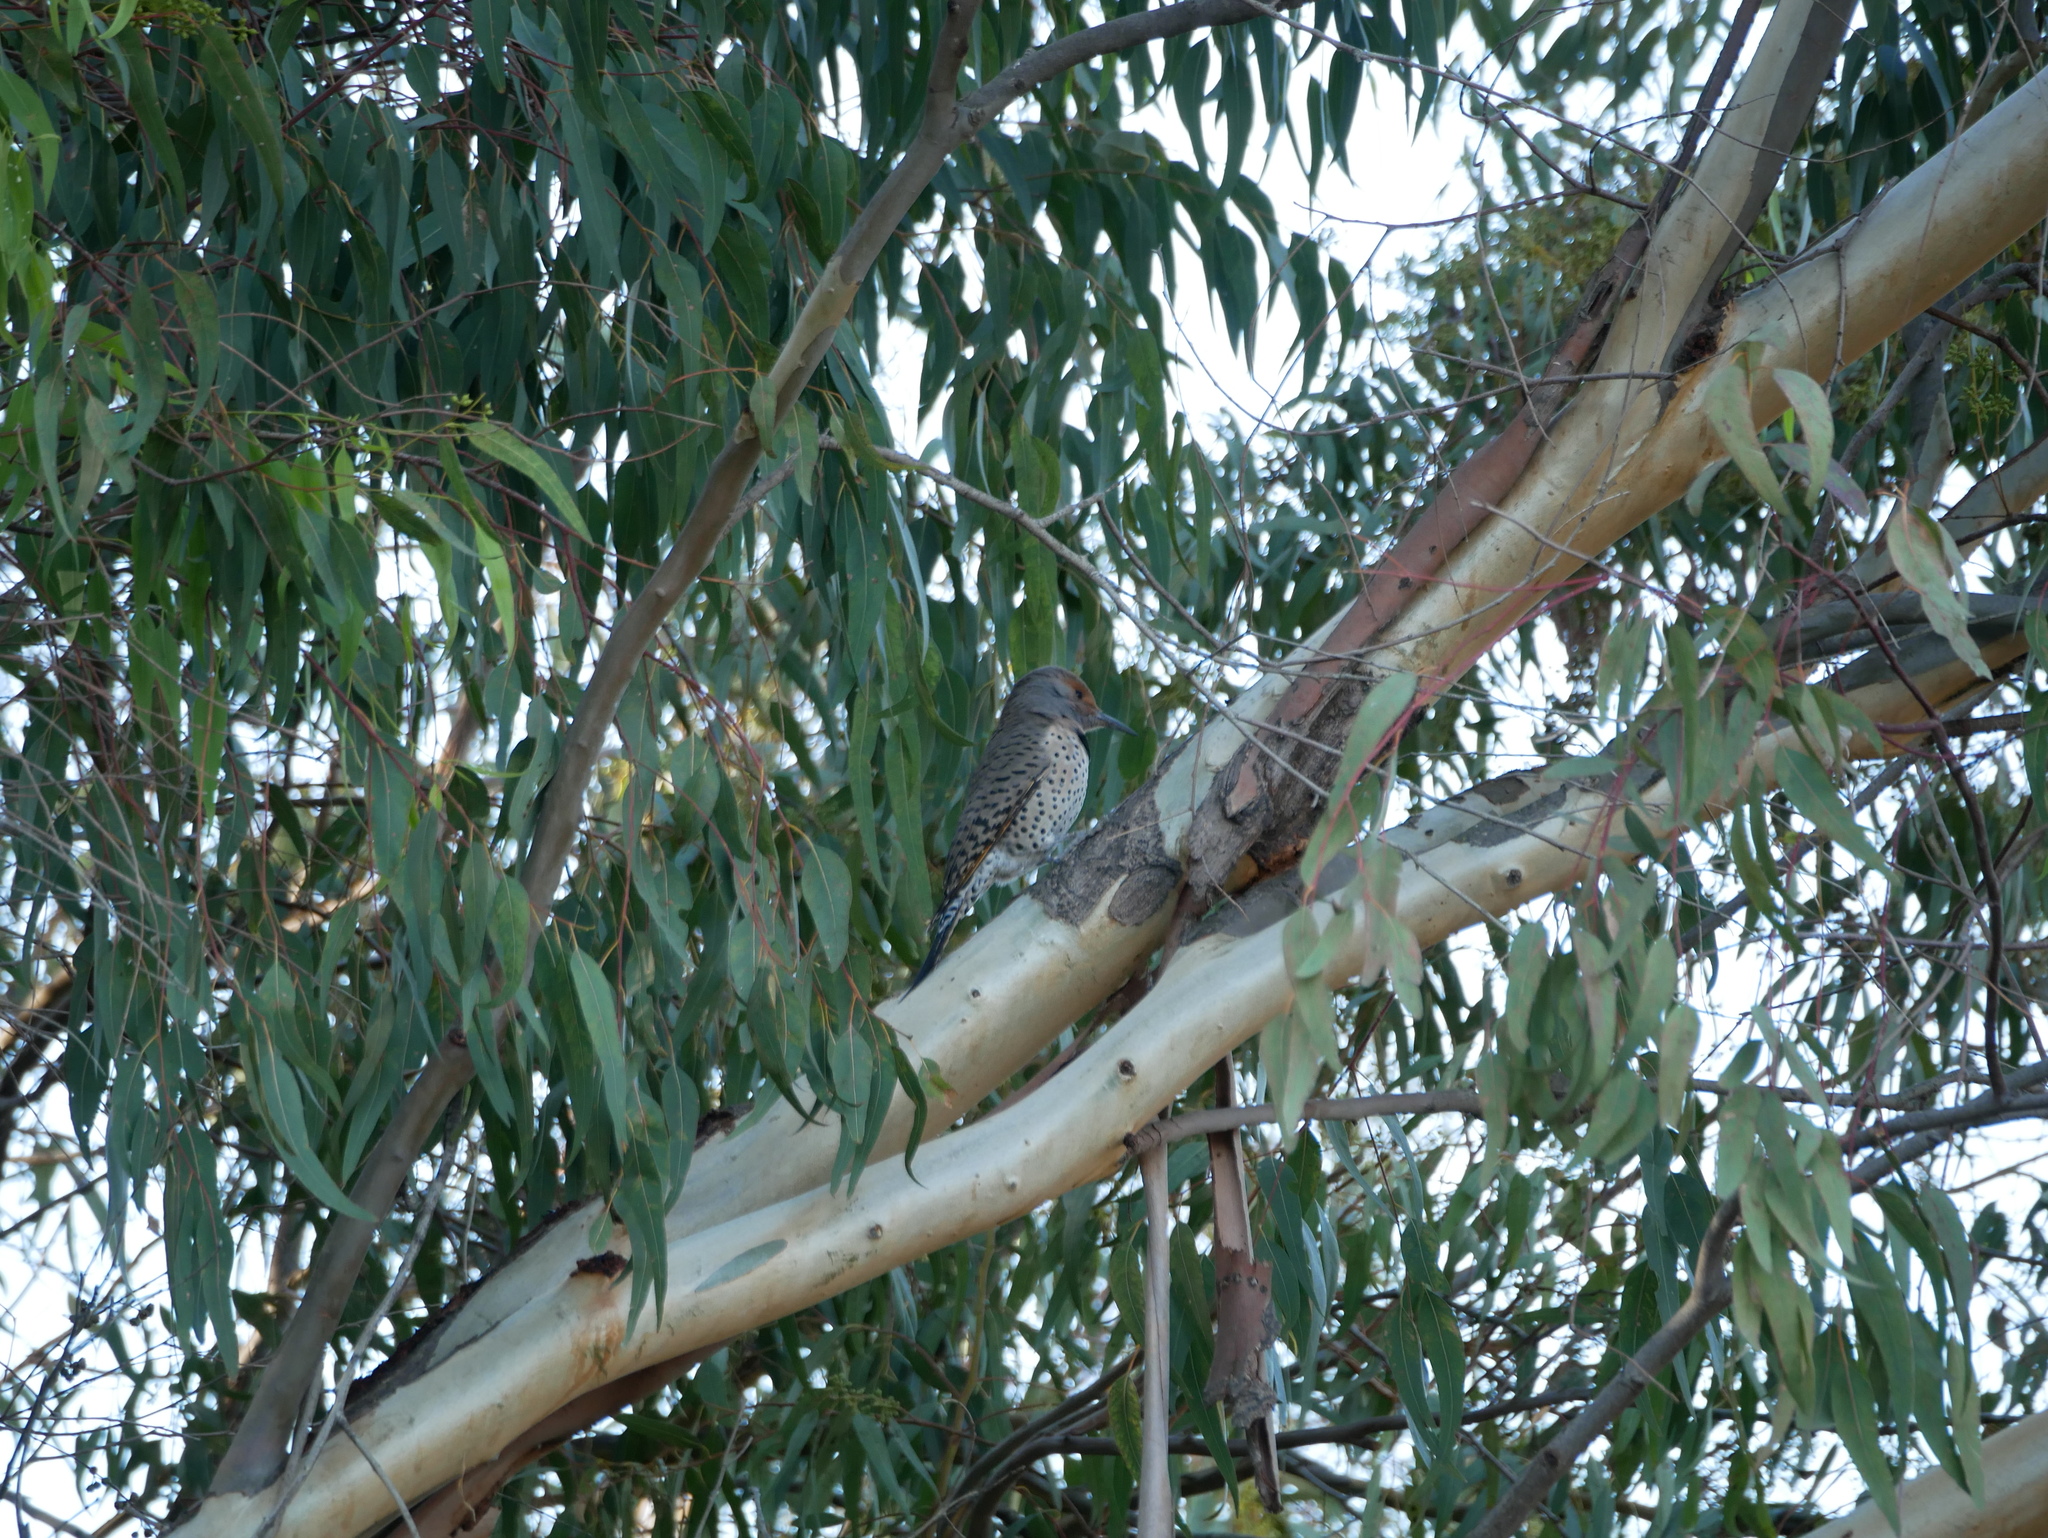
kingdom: Animalia
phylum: Chordata
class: Aves
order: Piciformes
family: Picidae
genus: Colaptes
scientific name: Colaptes auratus
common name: Northern flicker
